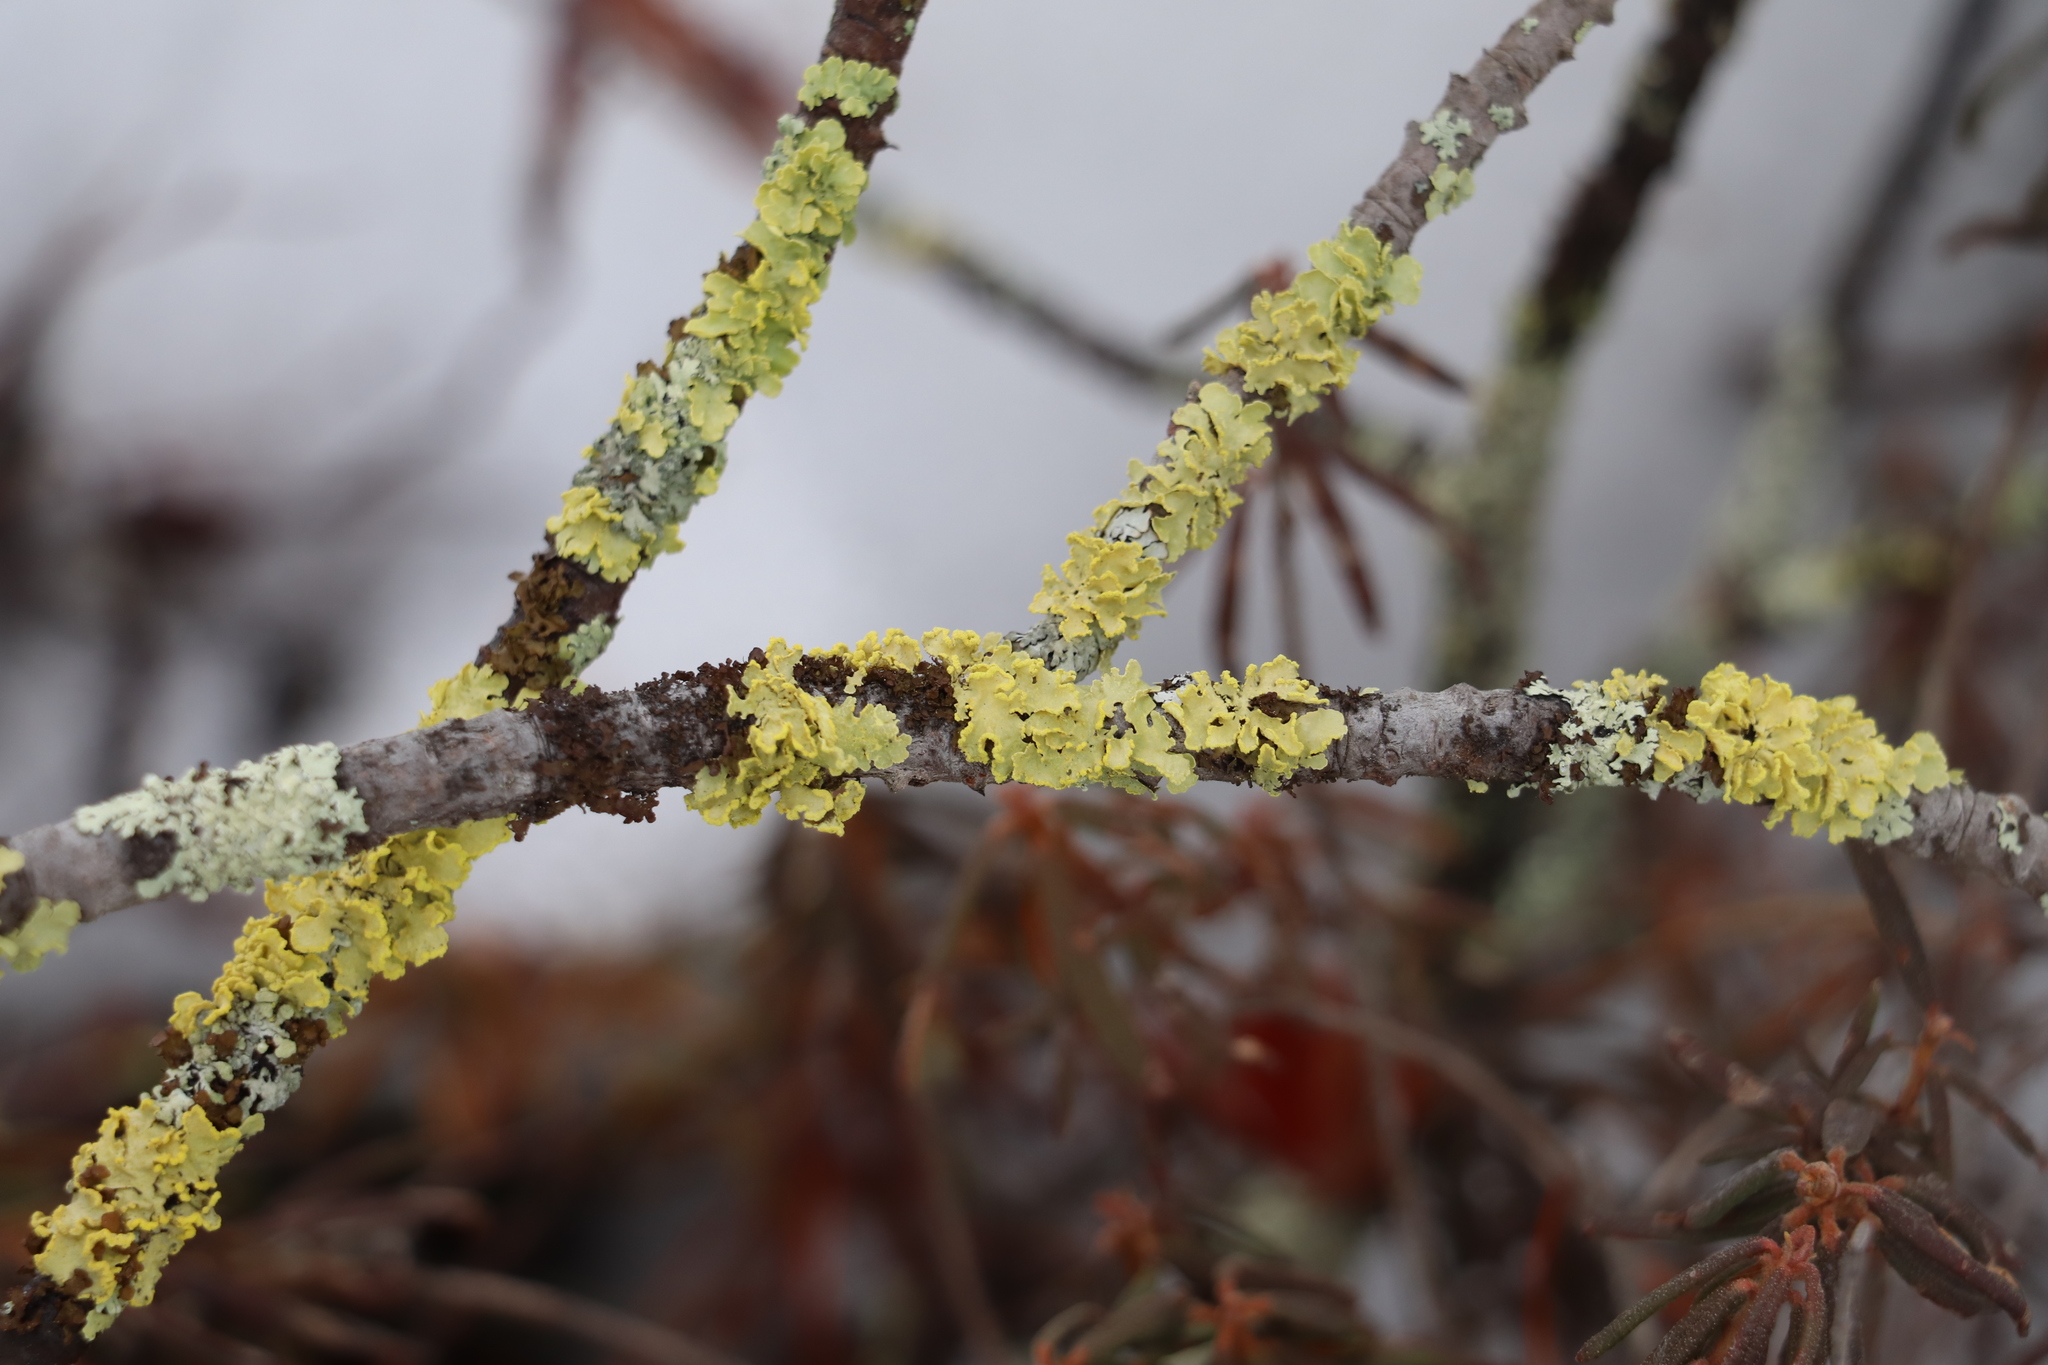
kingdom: Fungi
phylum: Ascomycota
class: Lecanoromycetes
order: Lecanorales
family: Parmeliaceae
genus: Vulpicida
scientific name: Vulpicida pinastri
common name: Powdered sunshine lichen
